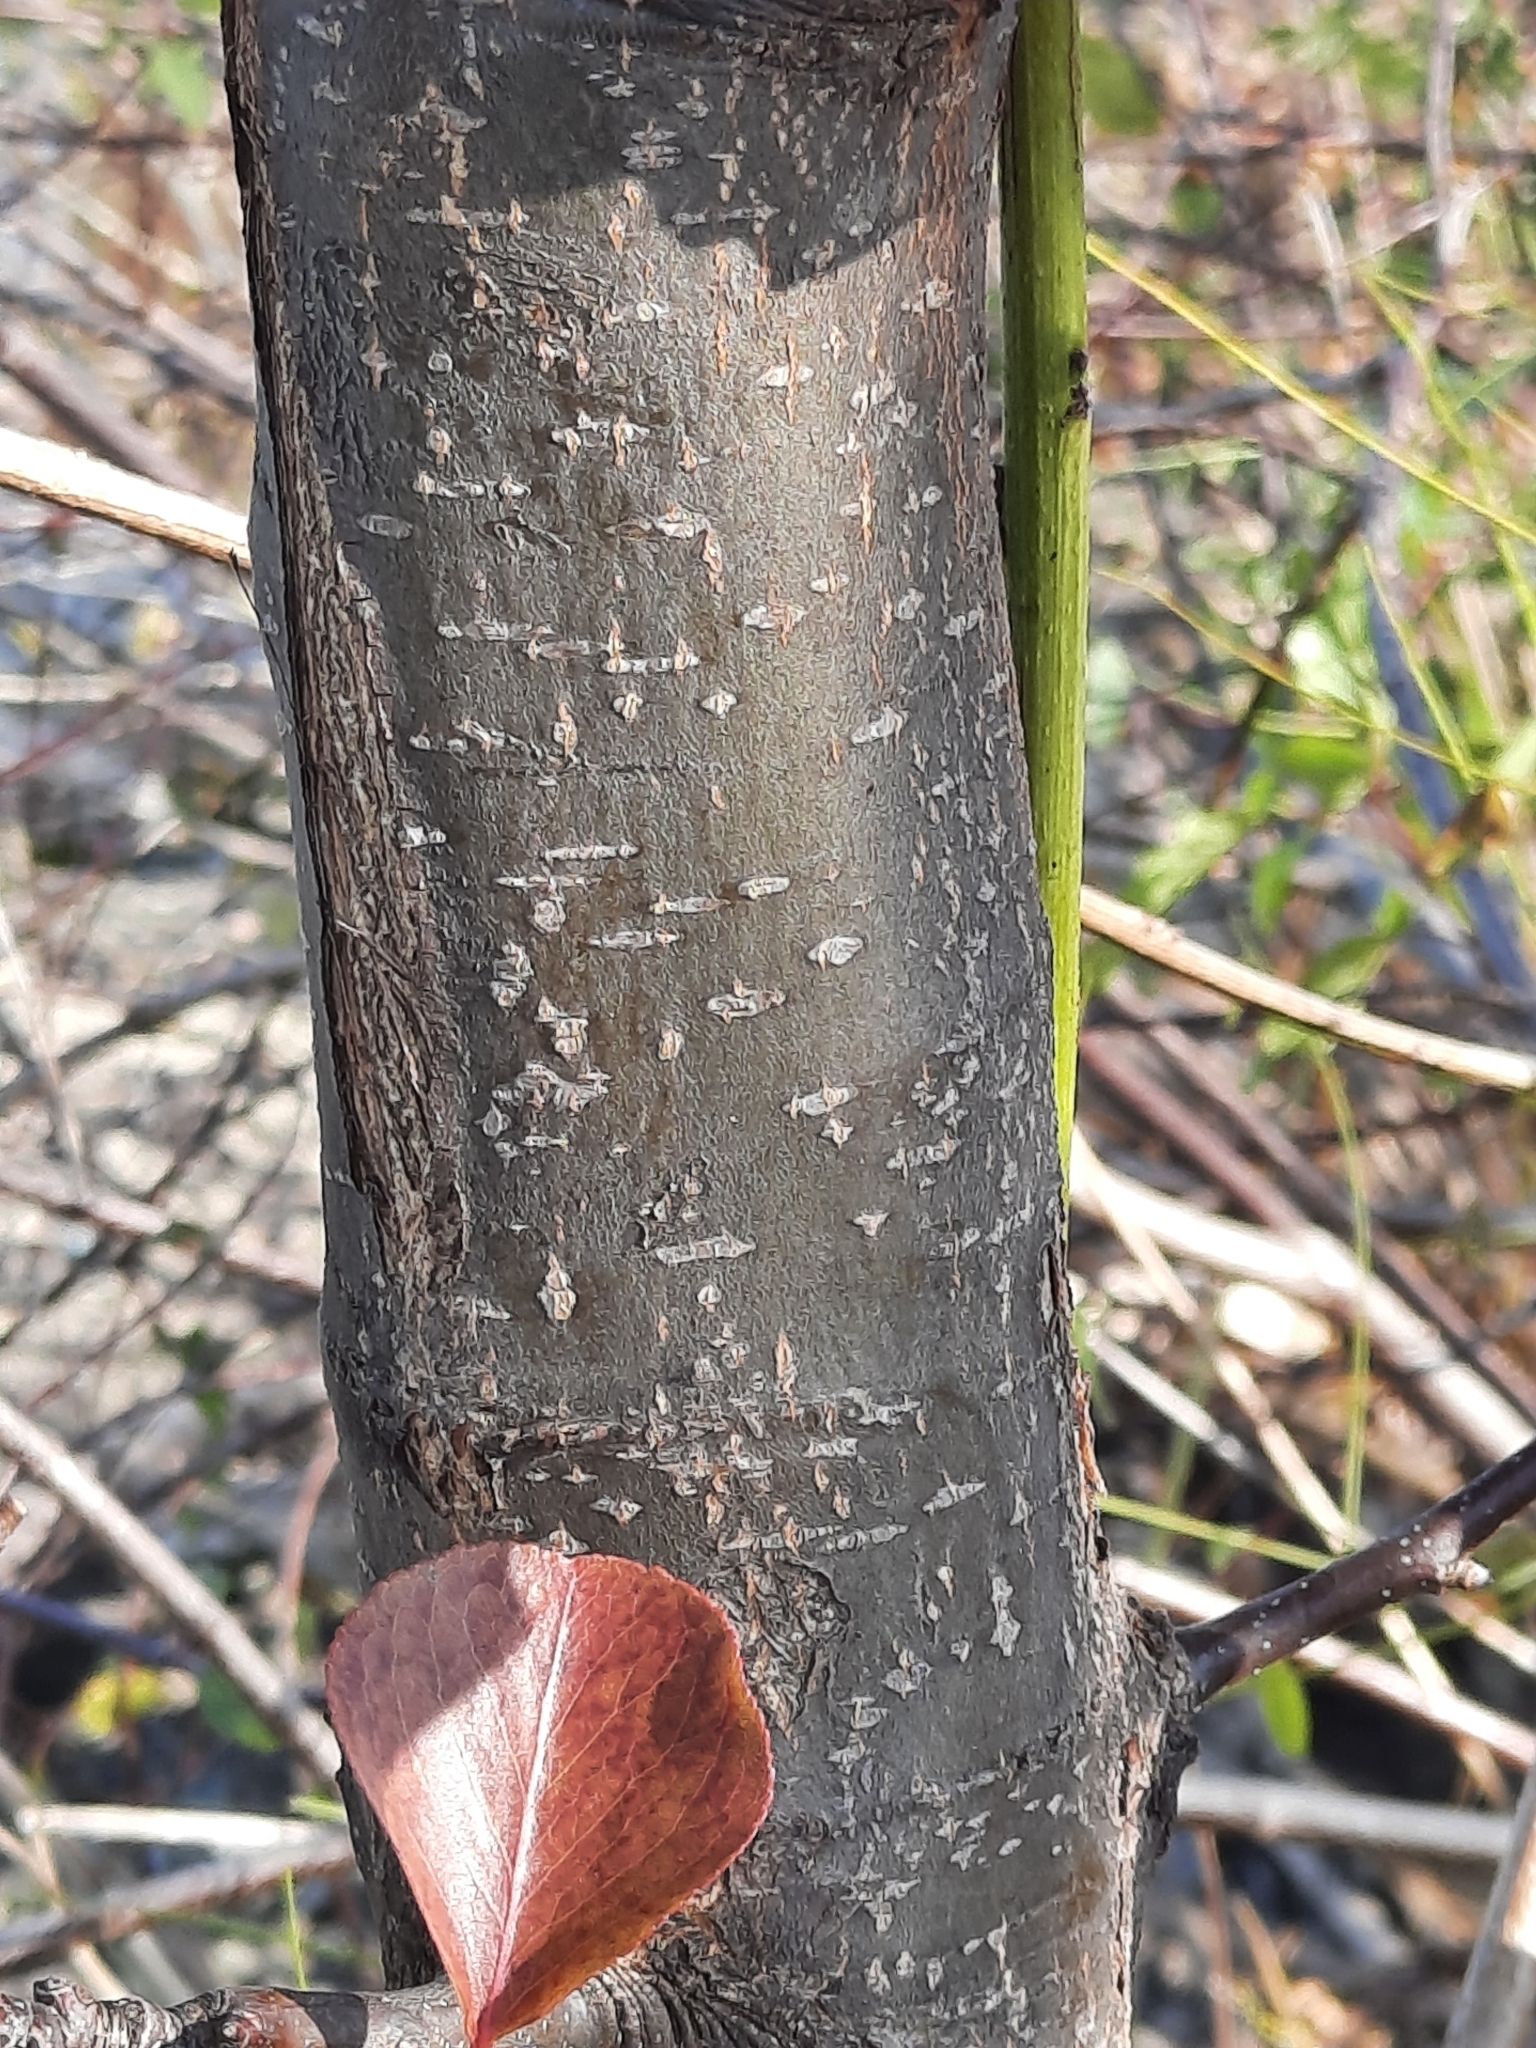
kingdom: Plantae
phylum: Tracheophyta
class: Magnoliopsida
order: Rosales
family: Rosaceae
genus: Pyrus
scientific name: Pyrus calleryana
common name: Callery pear
